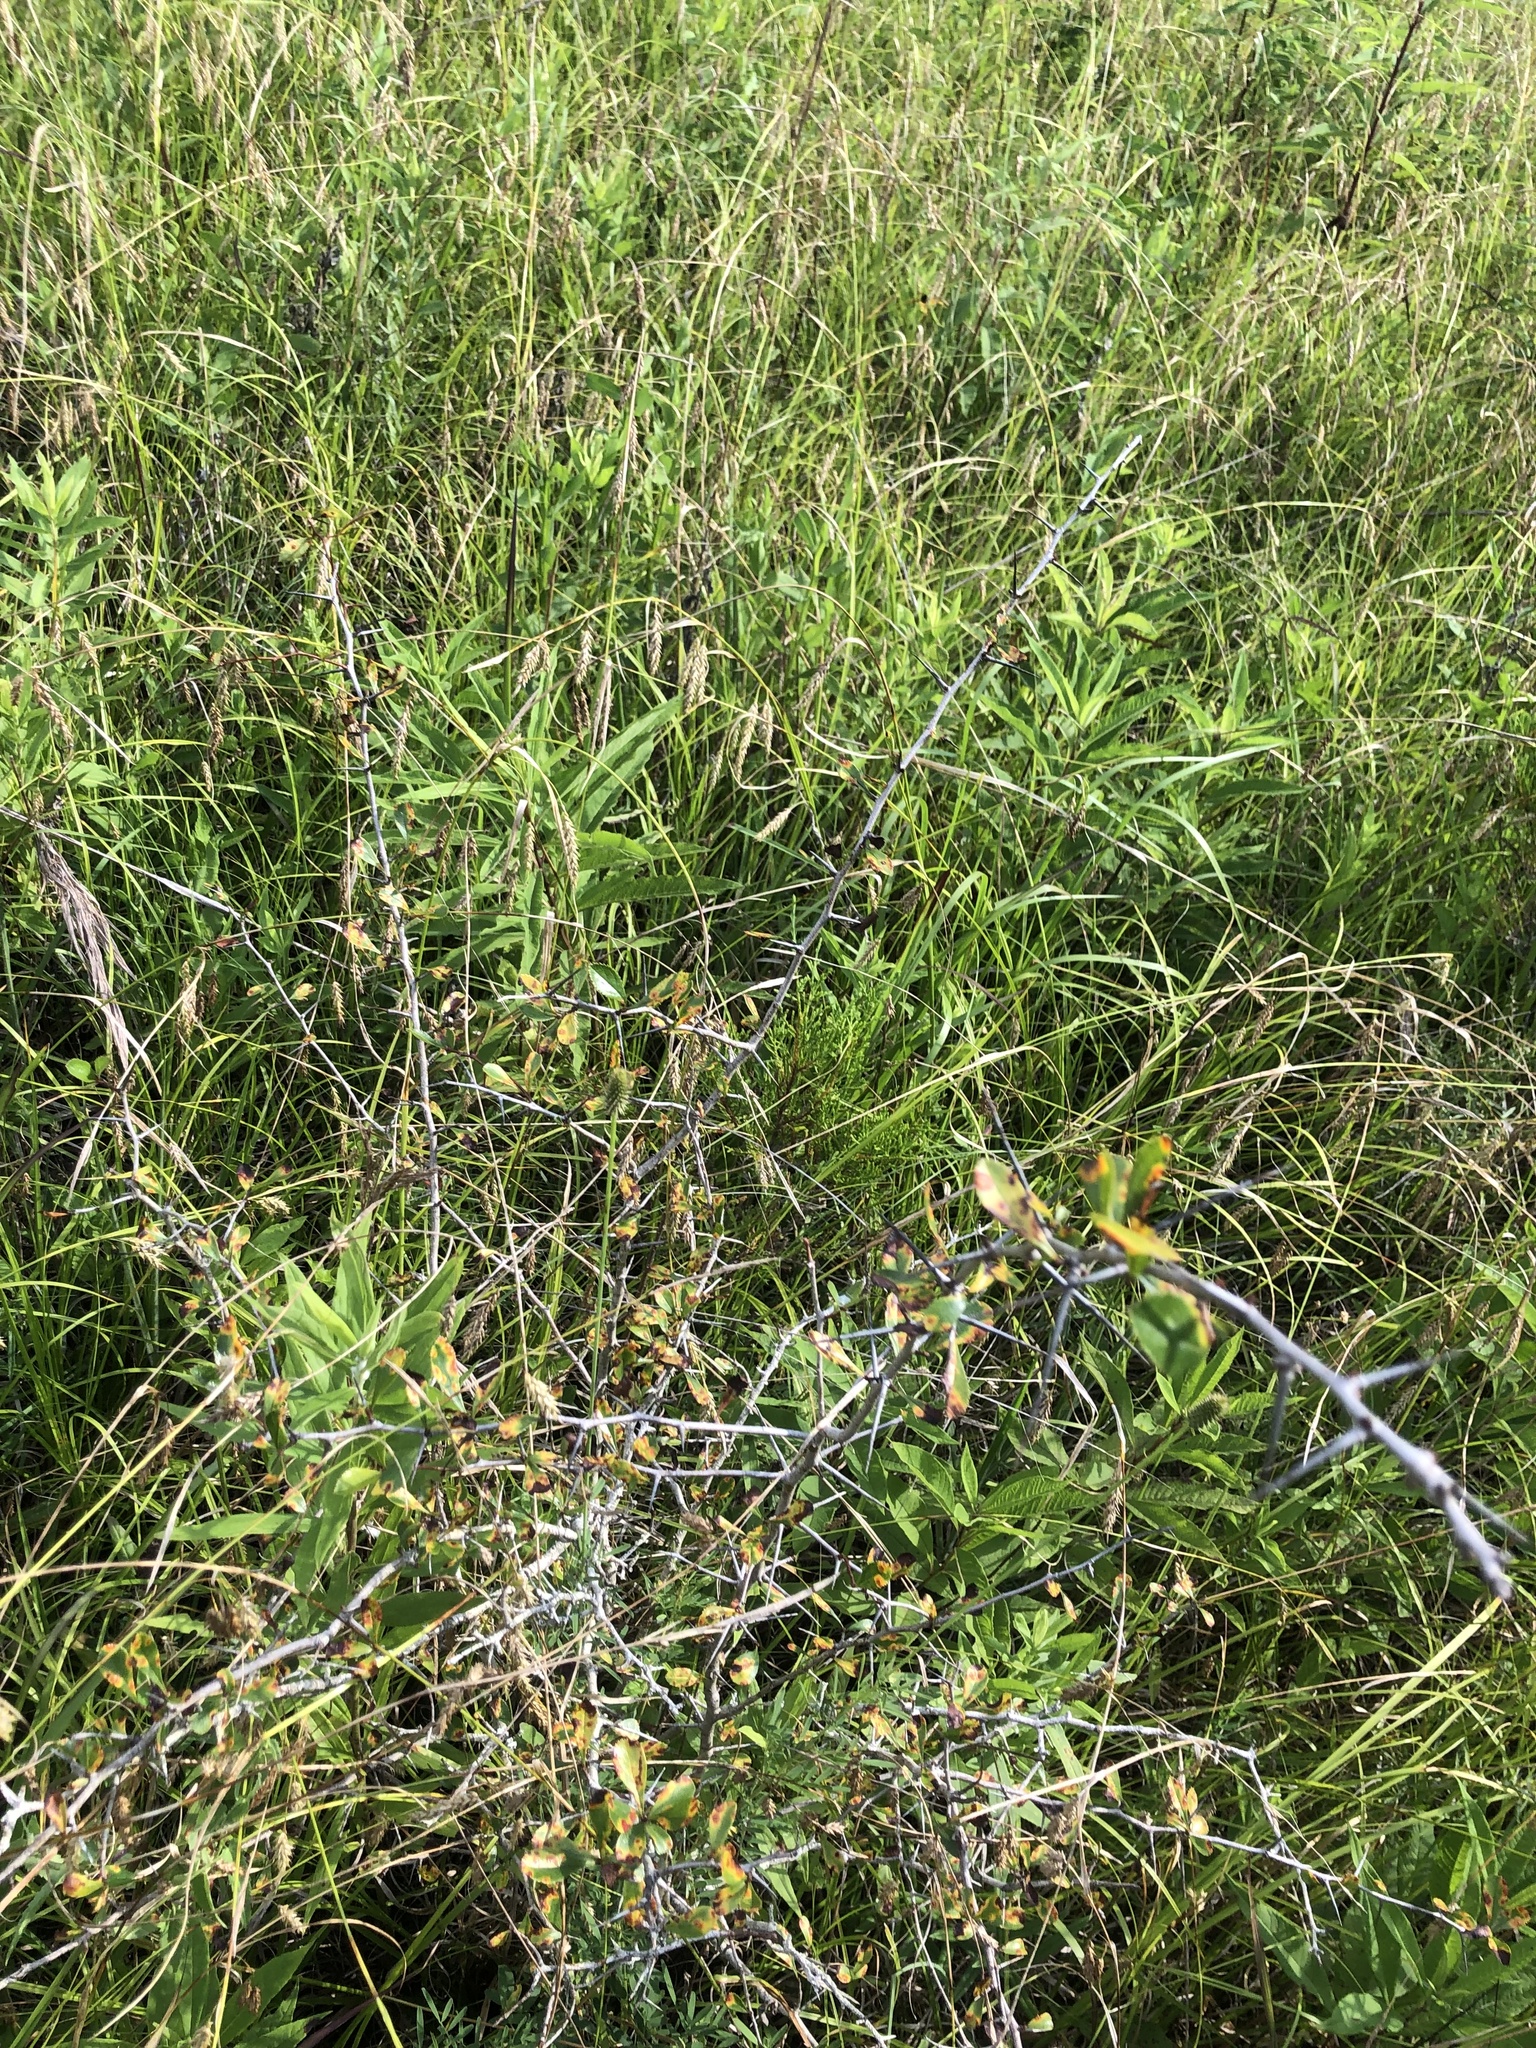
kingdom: Plantae
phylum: Tracheophyta
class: Magnoliopsida
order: Rosales
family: Rosaceae
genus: Crataegus
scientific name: Crataegus berberifolia
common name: Barberry hawthorn
